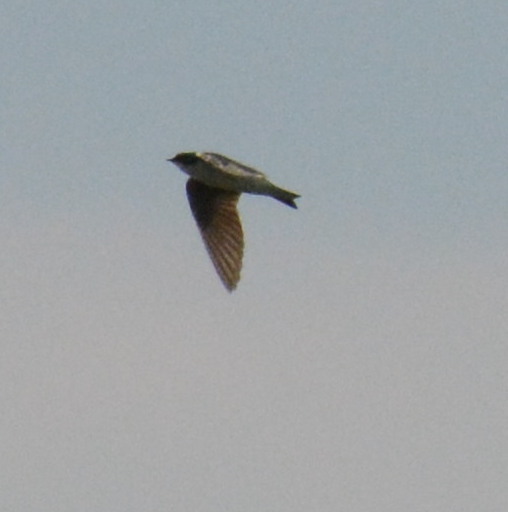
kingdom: Animalia
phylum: Chordata
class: Aves
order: Passeriformes
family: Hirundinidae
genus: Tachycineta
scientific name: Tachycineta bicolor
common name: Tree swallow
